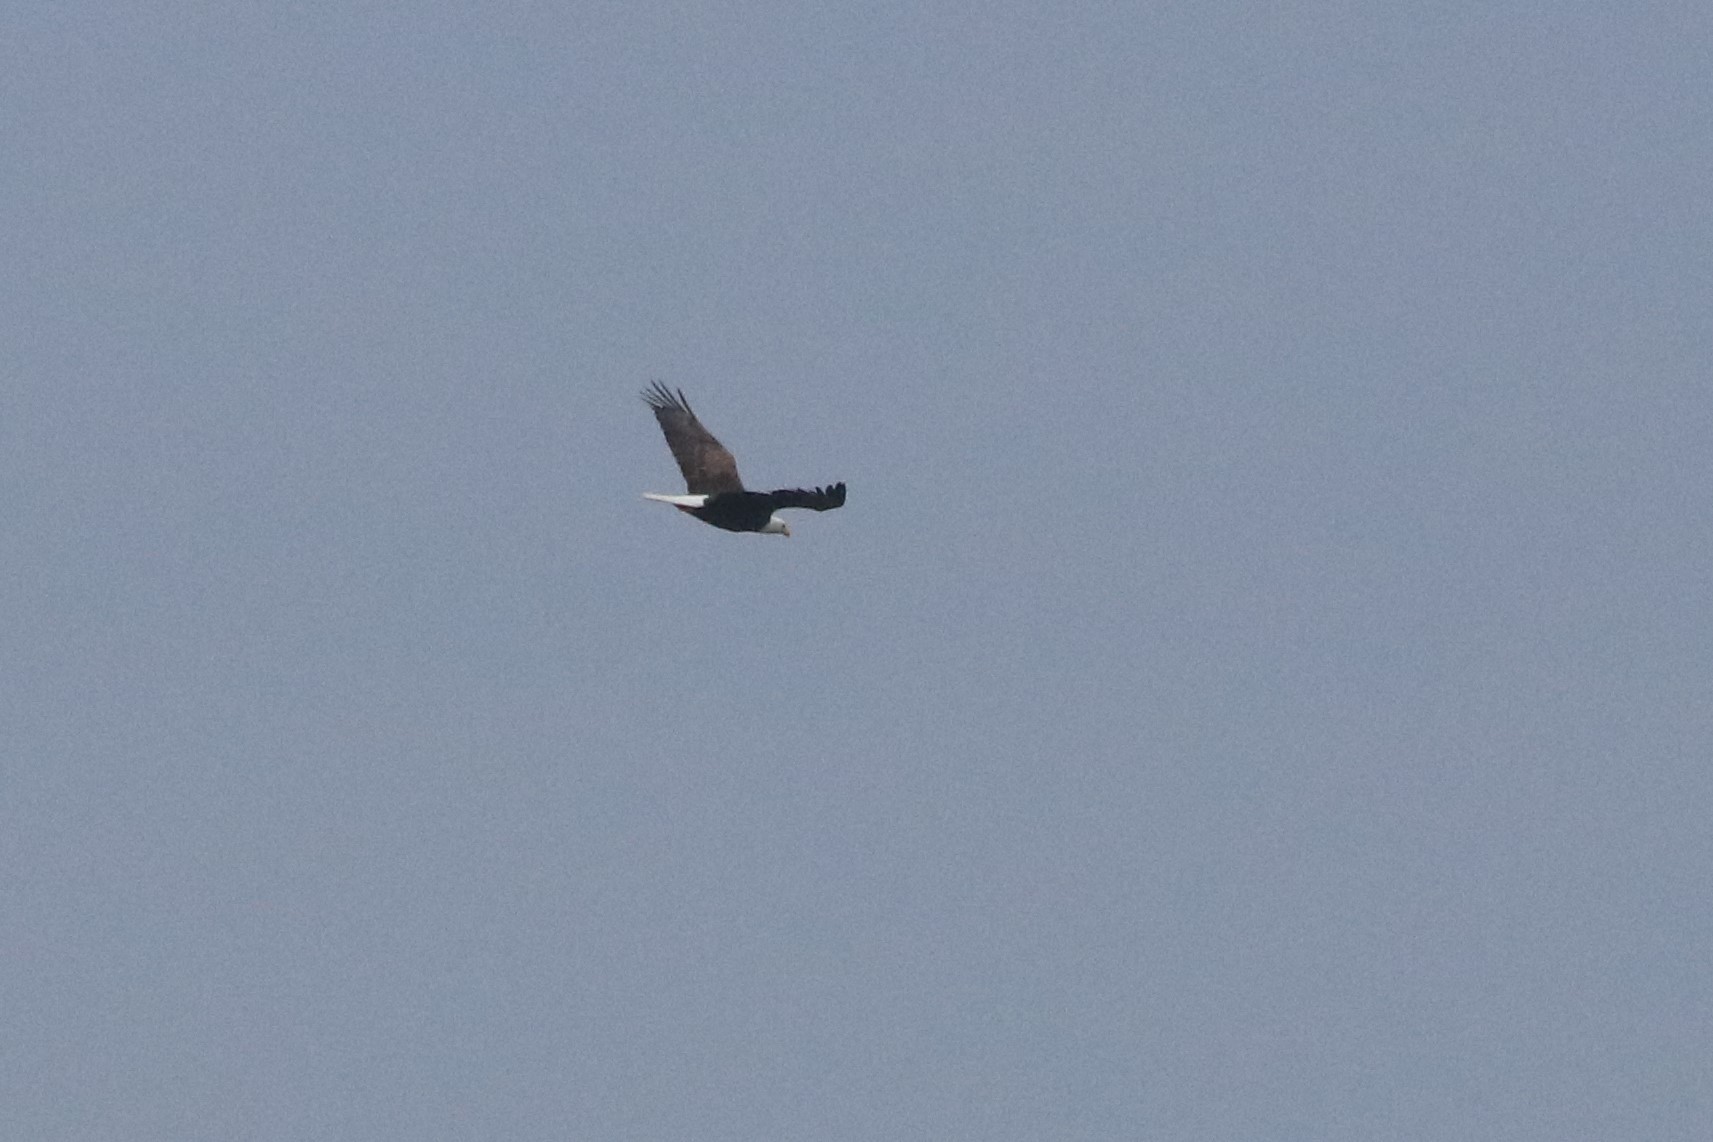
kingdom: Animalia
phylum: Chordata
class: Aves
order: Accipitriformes
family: Accipitridae
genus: Haliaeetus
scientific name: Haliaeetus leucocephalus
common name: Bald eagle
